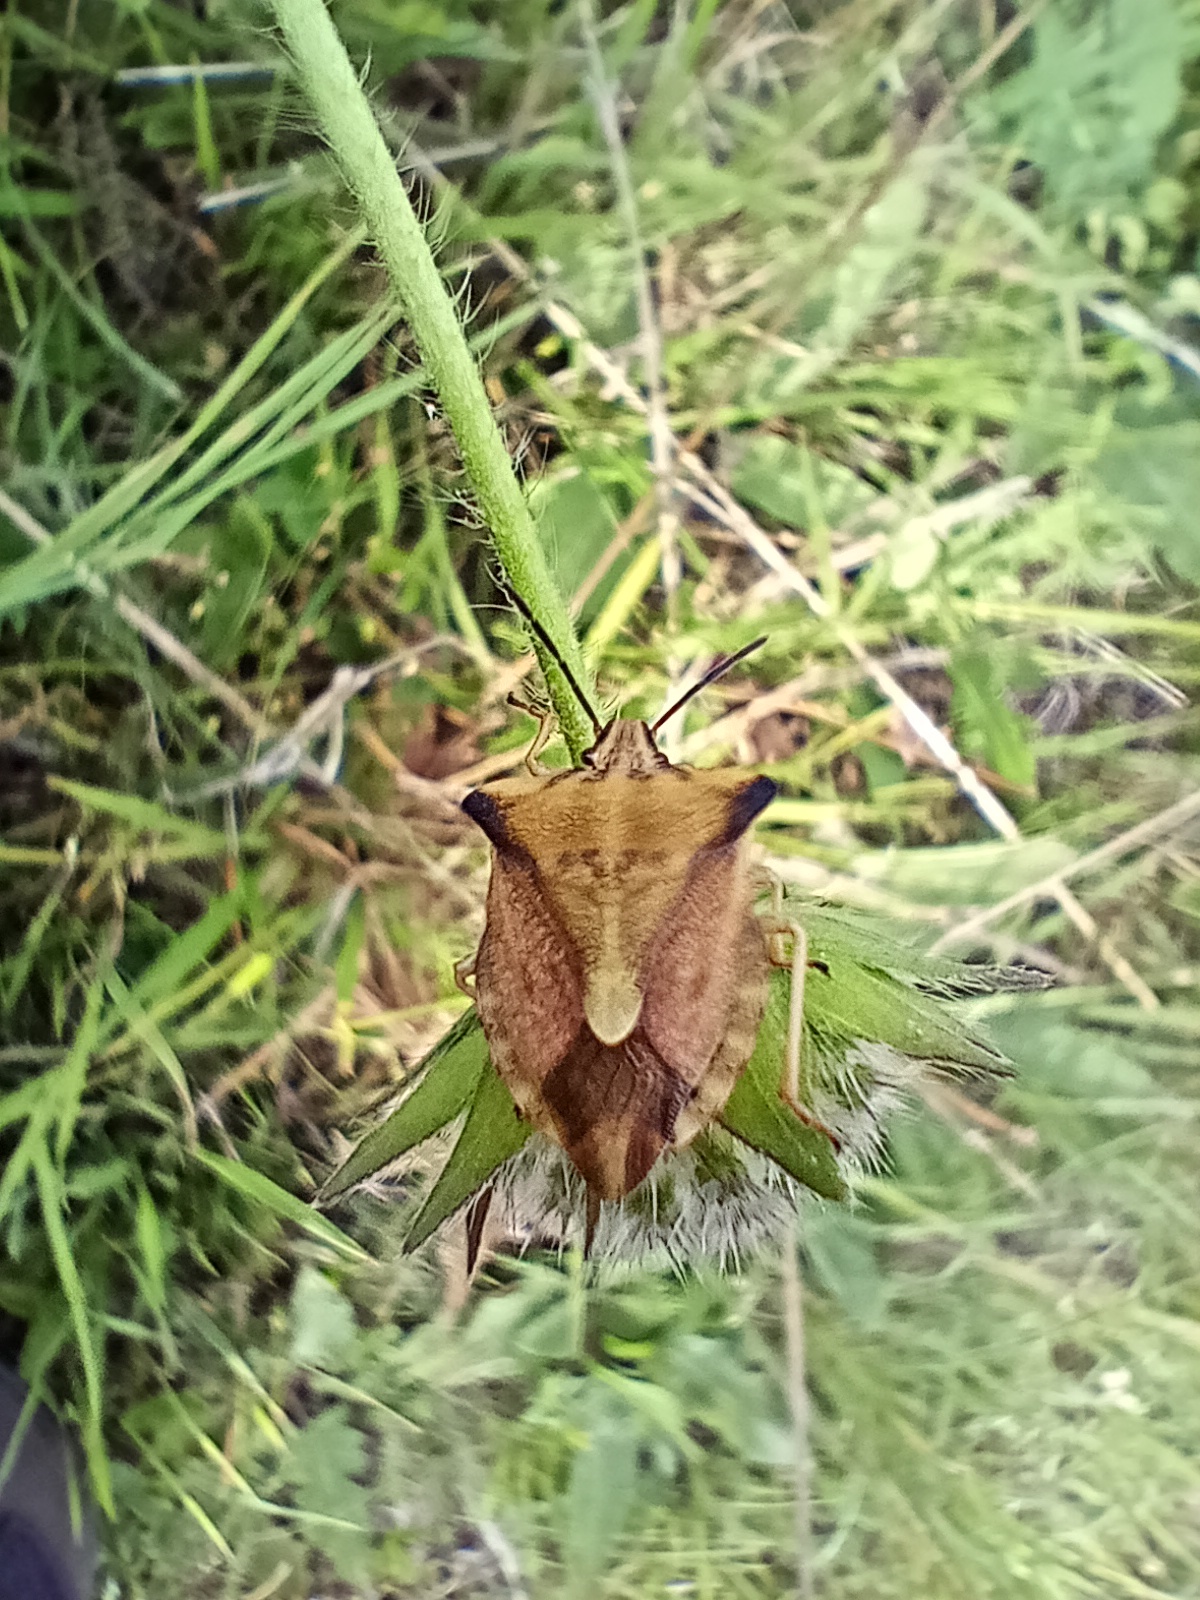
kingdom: Animalia
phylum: Arthropoda
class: Insecta
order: Hemiptera
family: Pentatomidae
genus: Carpocoris
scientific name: Carpocoris fuscispinus
